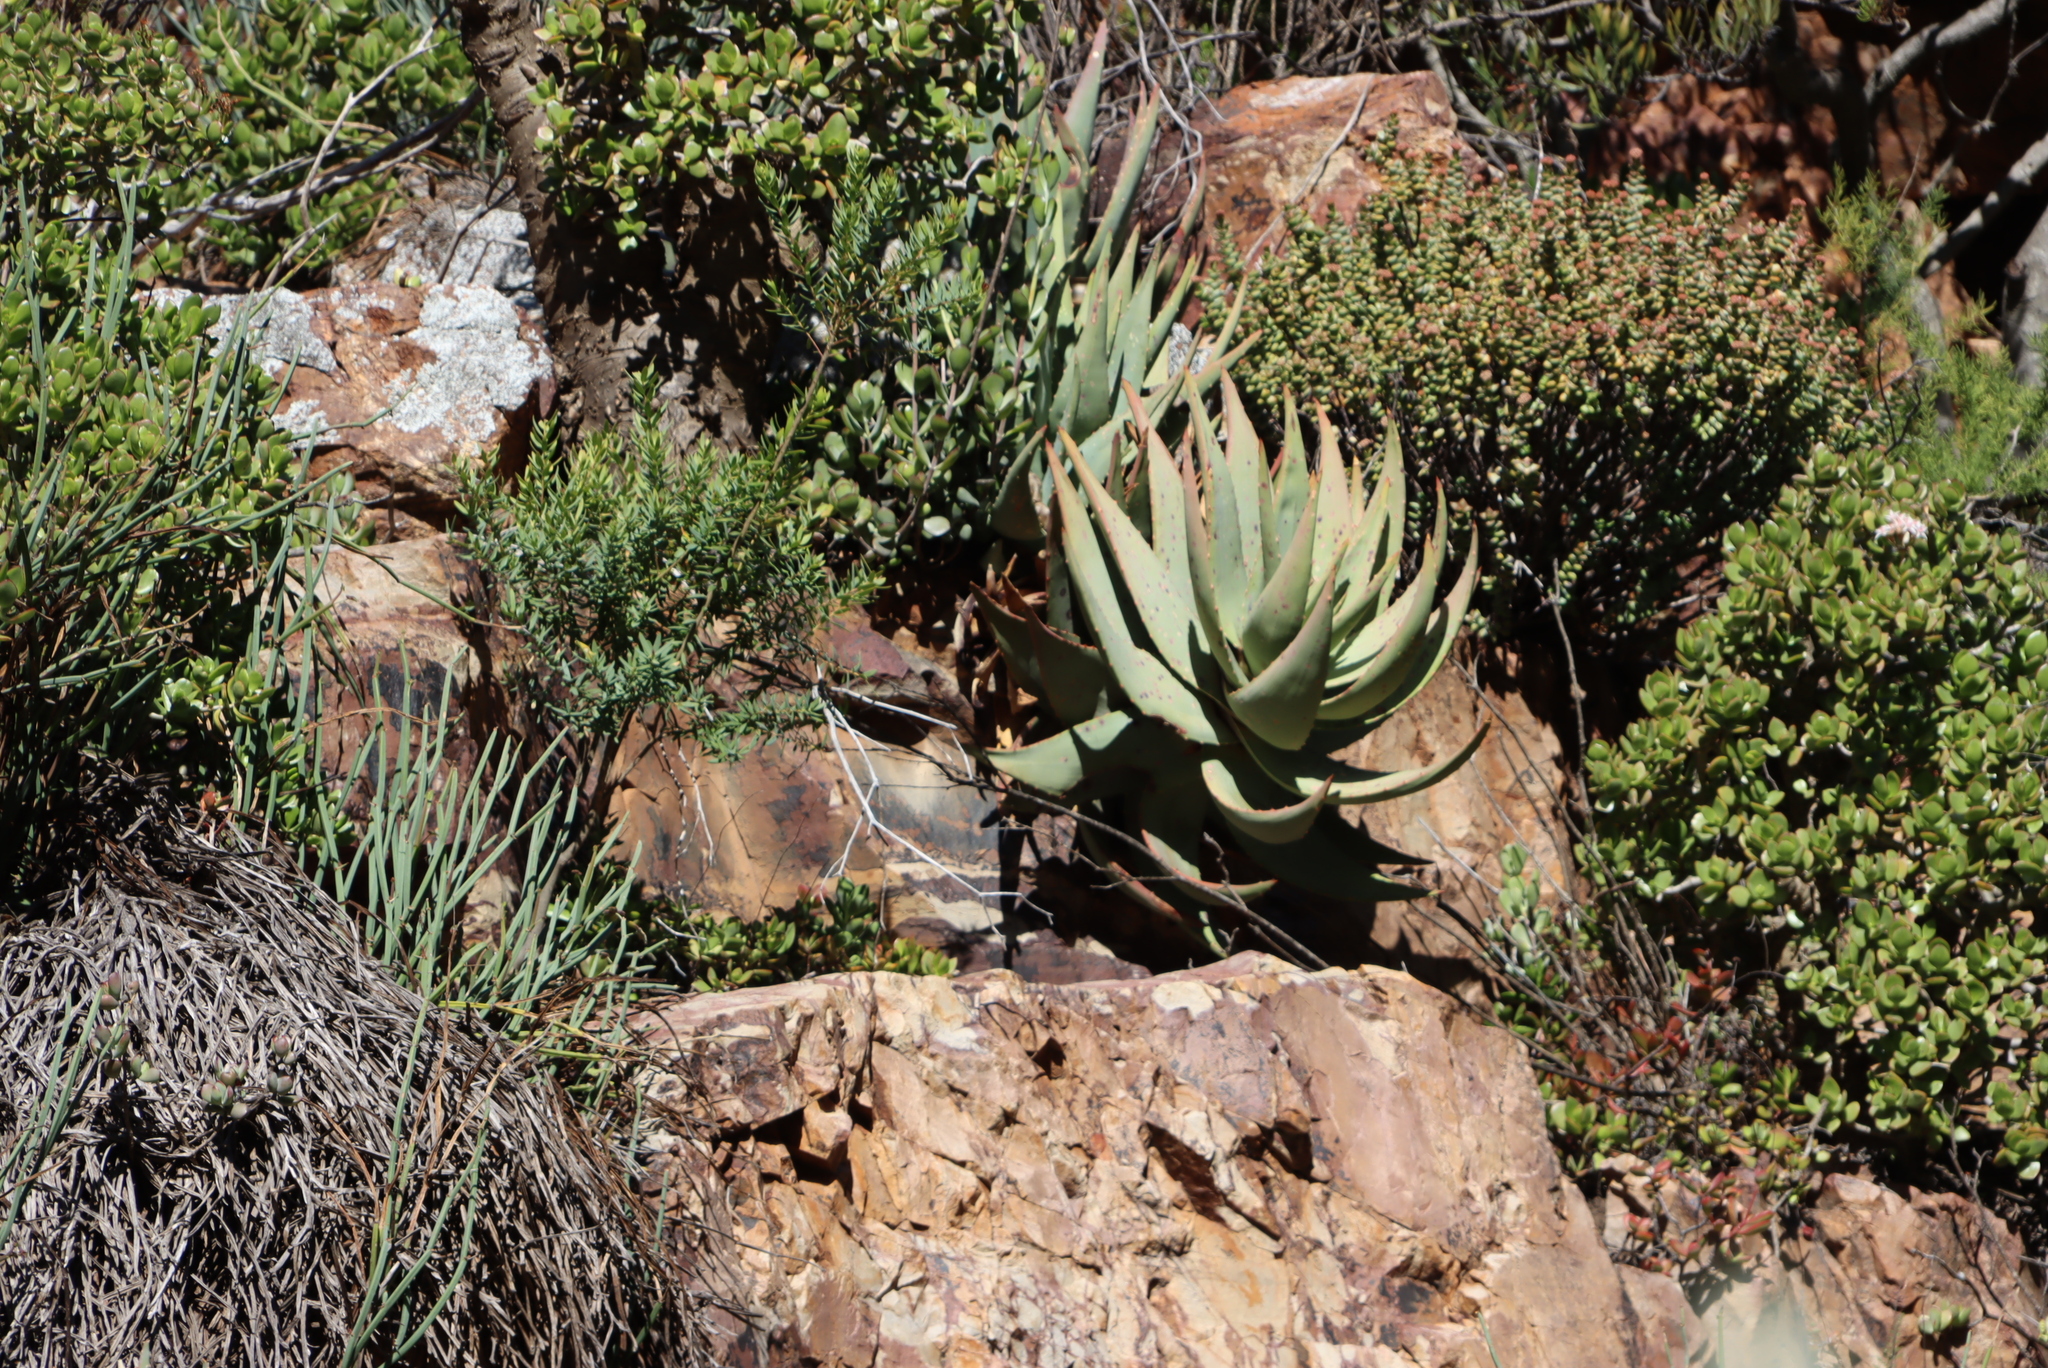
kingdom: Plantae
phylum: Tracheophyta
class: Liliopsida
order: Asparagales
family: Asphodelaceae
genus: Aloe
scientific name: Aloe comptonii
